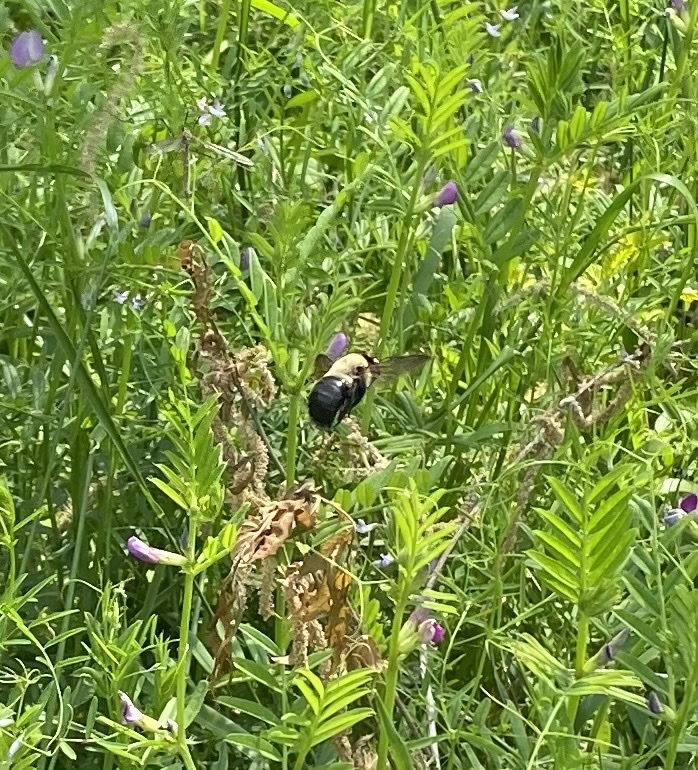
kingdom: Animalia
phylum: Arthropoda
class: Insecta
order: Hymenoptera
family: Apidae
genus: Xylocopa
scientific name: Xylocopa virginica
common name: Carpenter bee
